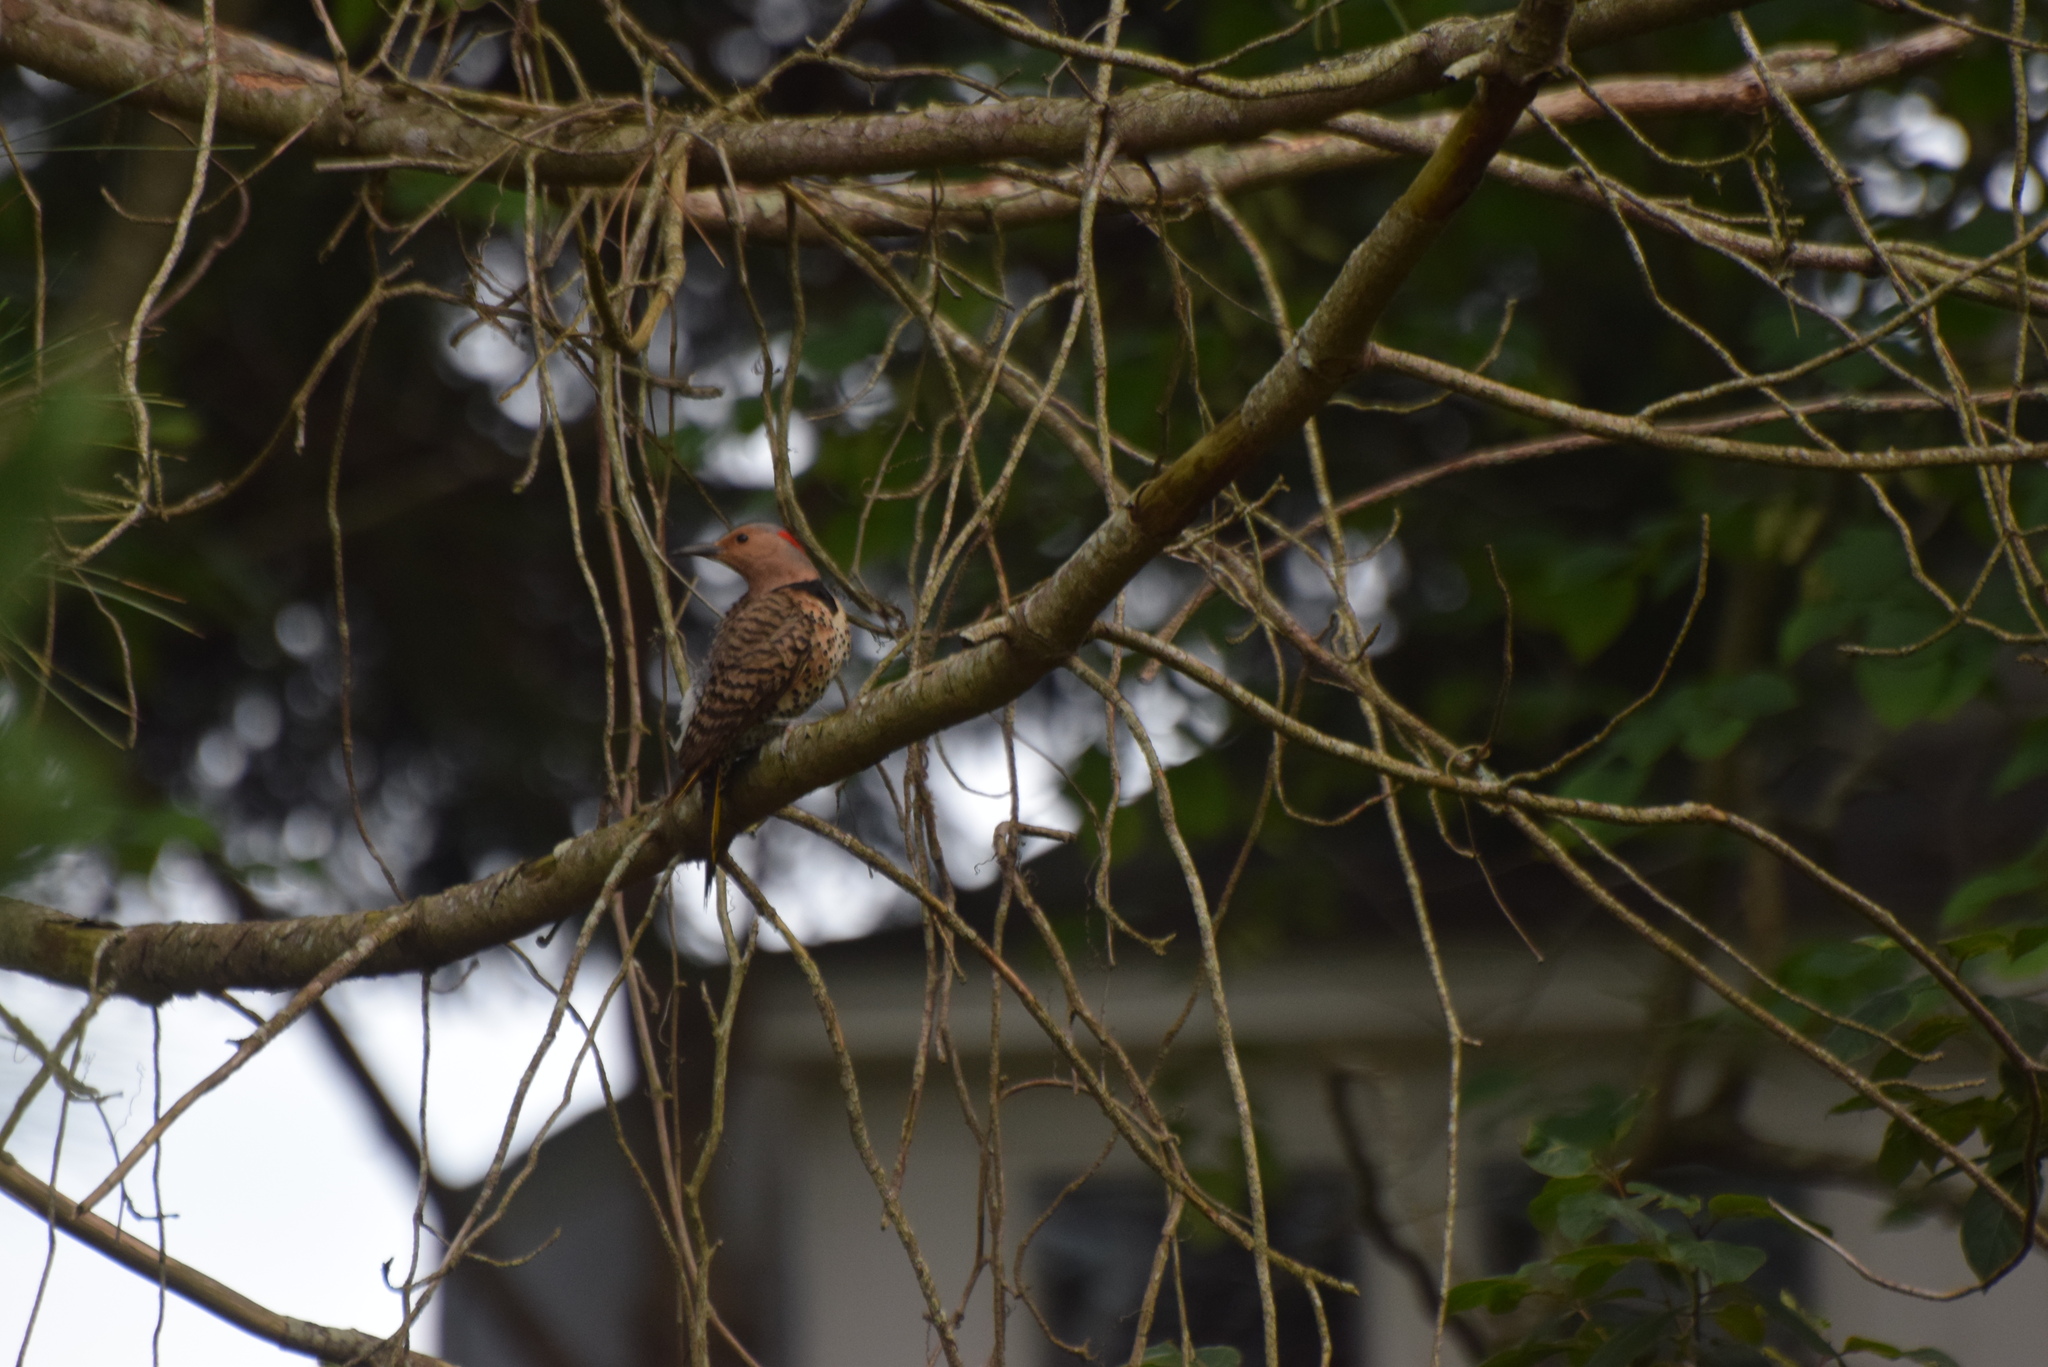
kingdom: Animalia
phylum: Chordata
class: Aves
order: Piciformes
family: Picidae
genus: Colaptes
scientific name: Colaptes auratus
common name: Northern flicker
